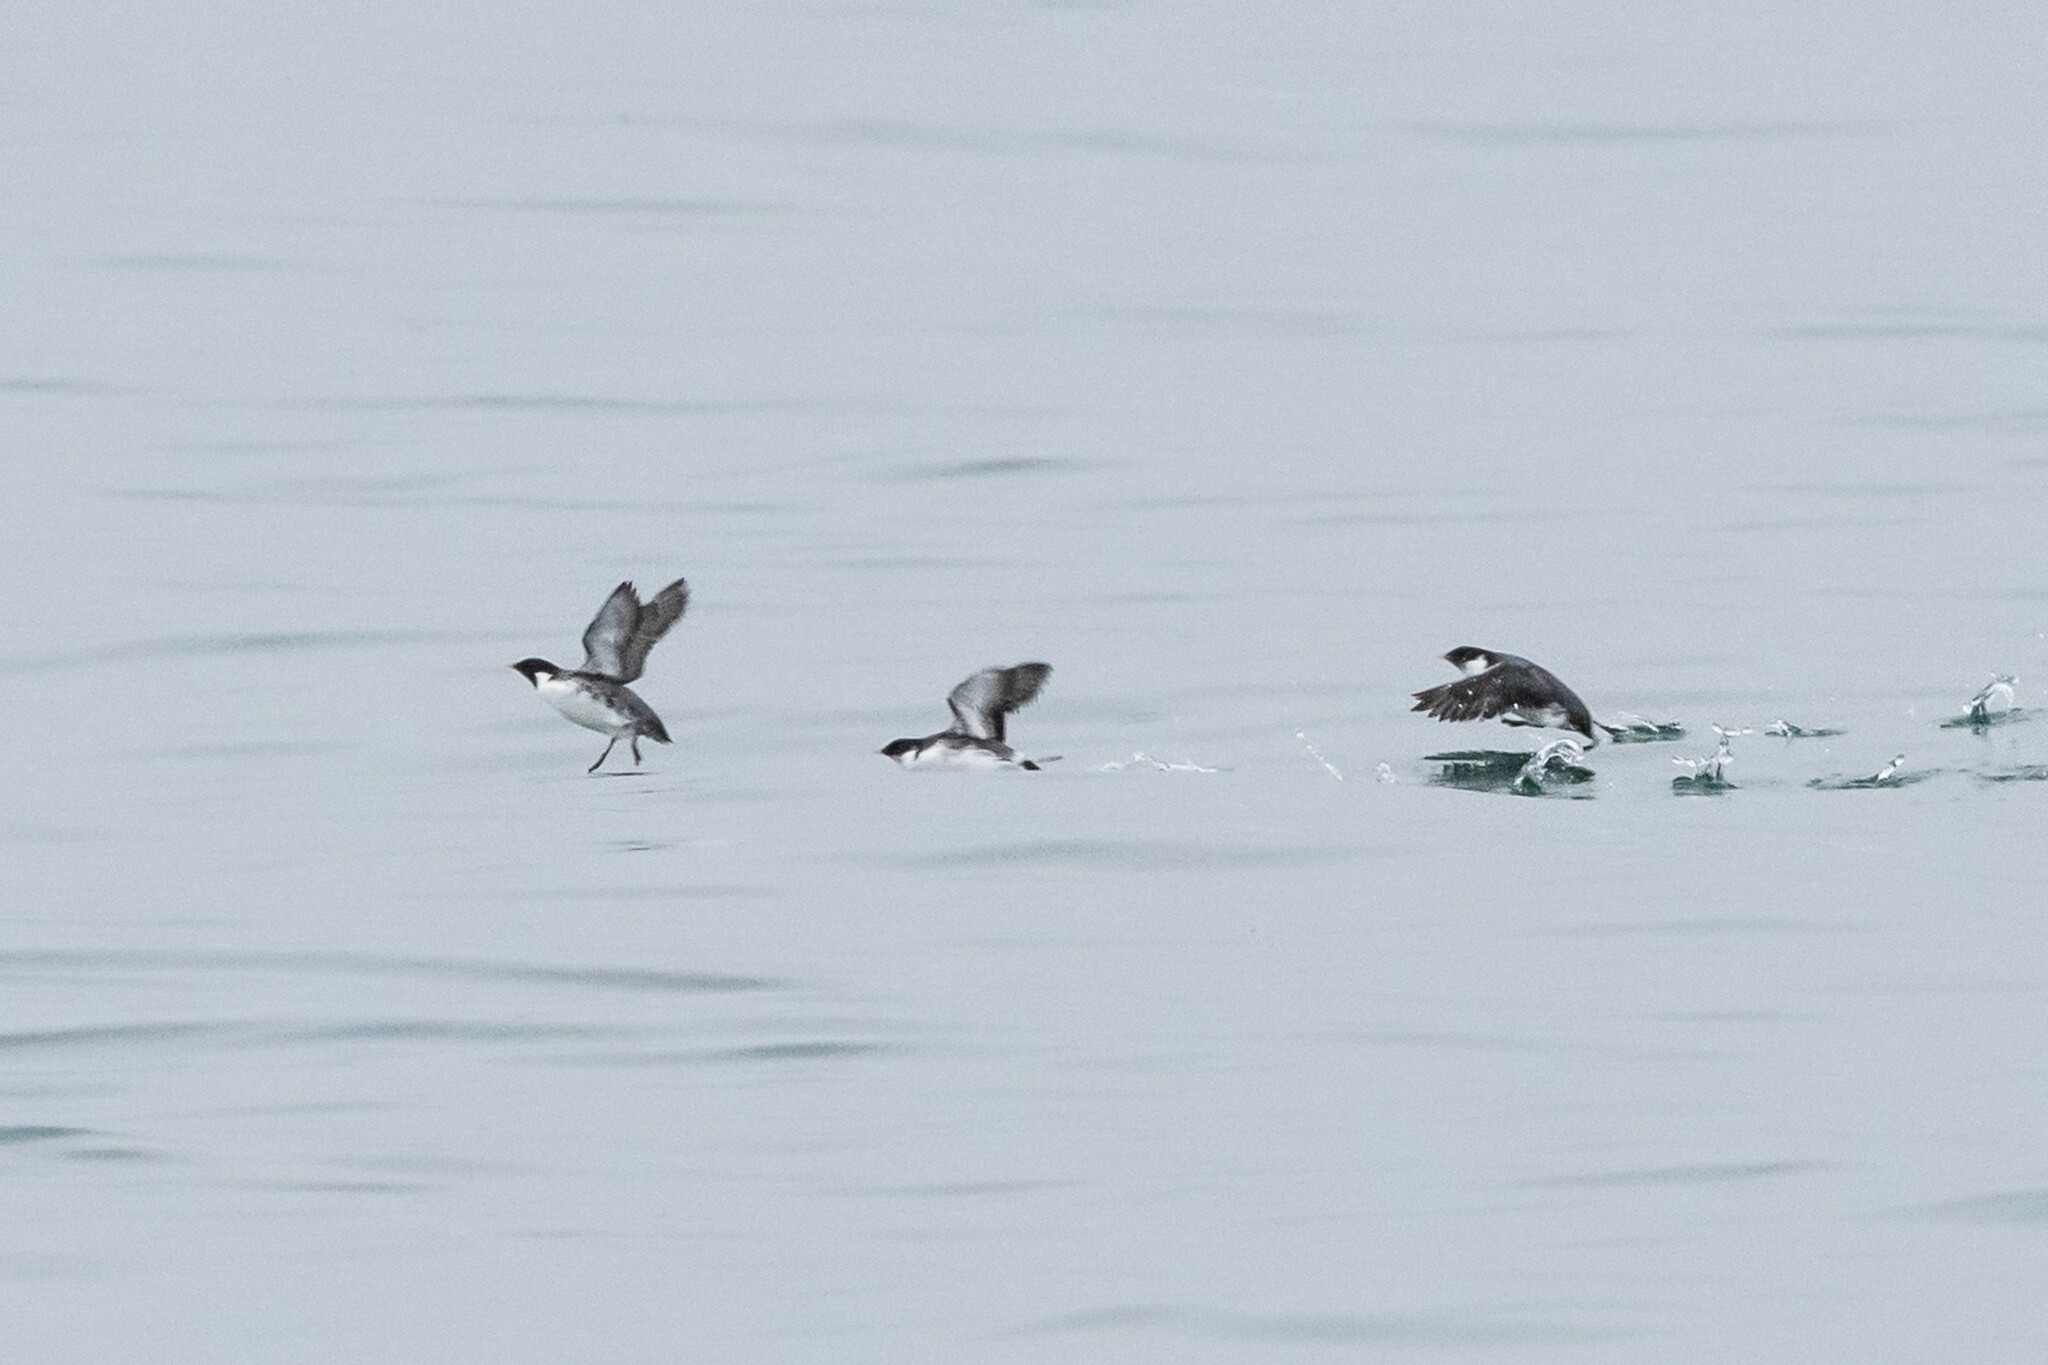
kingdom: Animalia
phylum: Chordata
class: Aves
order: Charadriiformes
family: Alcidae
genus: Synthliboramphus
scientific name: Synthliboramphus antiquus
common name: Ancient murrelet
